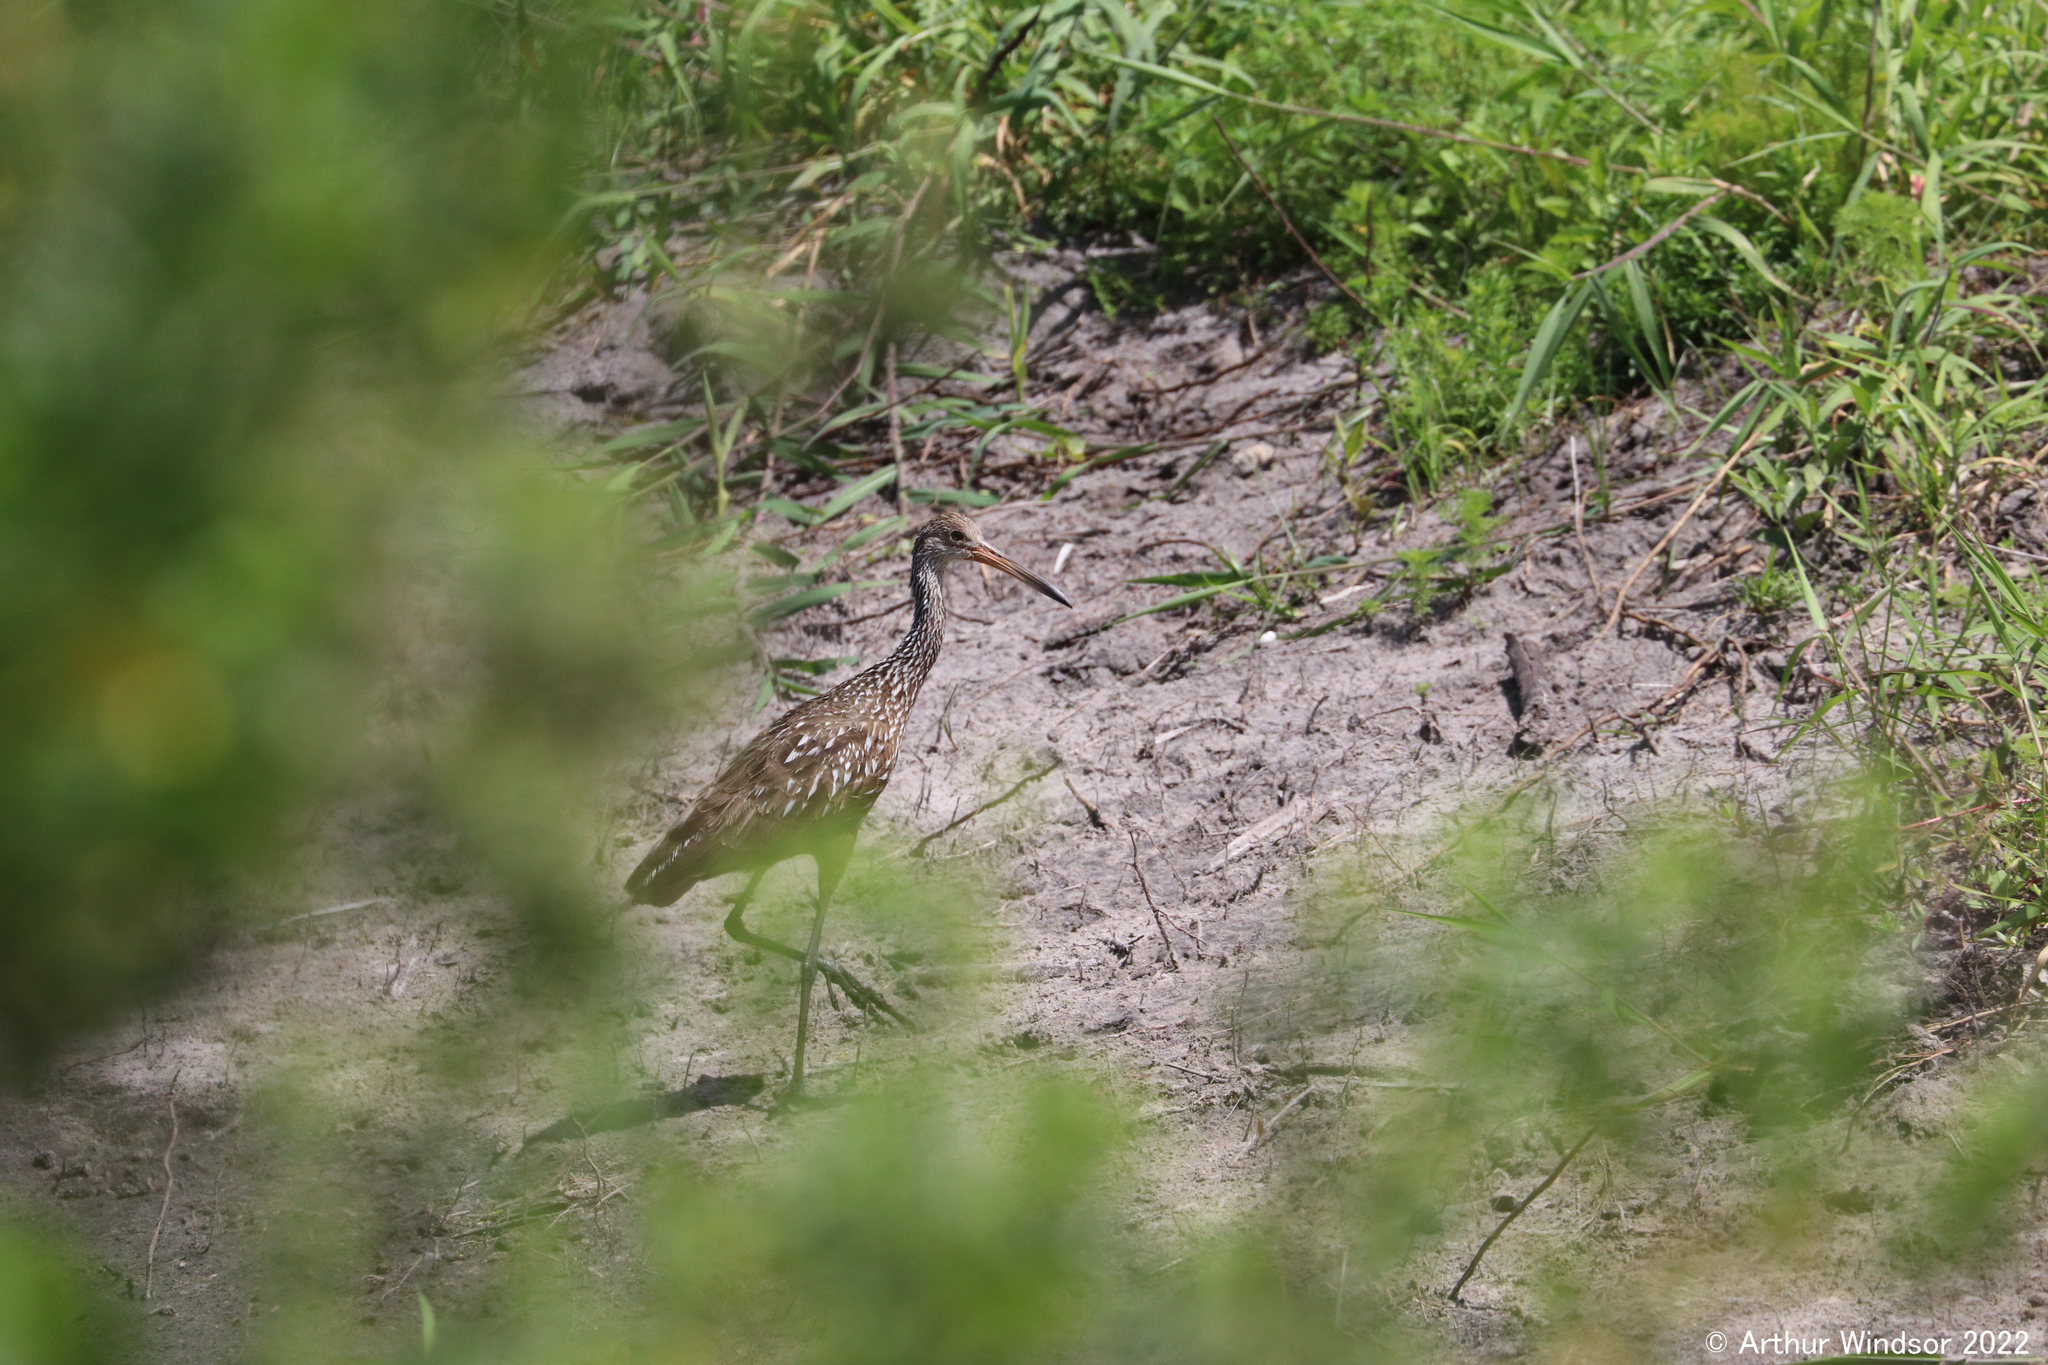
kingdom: Animalia
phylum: Chordata
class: Aves
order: Gruiformes
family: Aramidae
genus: Aramus
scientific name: Aramus guarauna
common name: Limpkin
